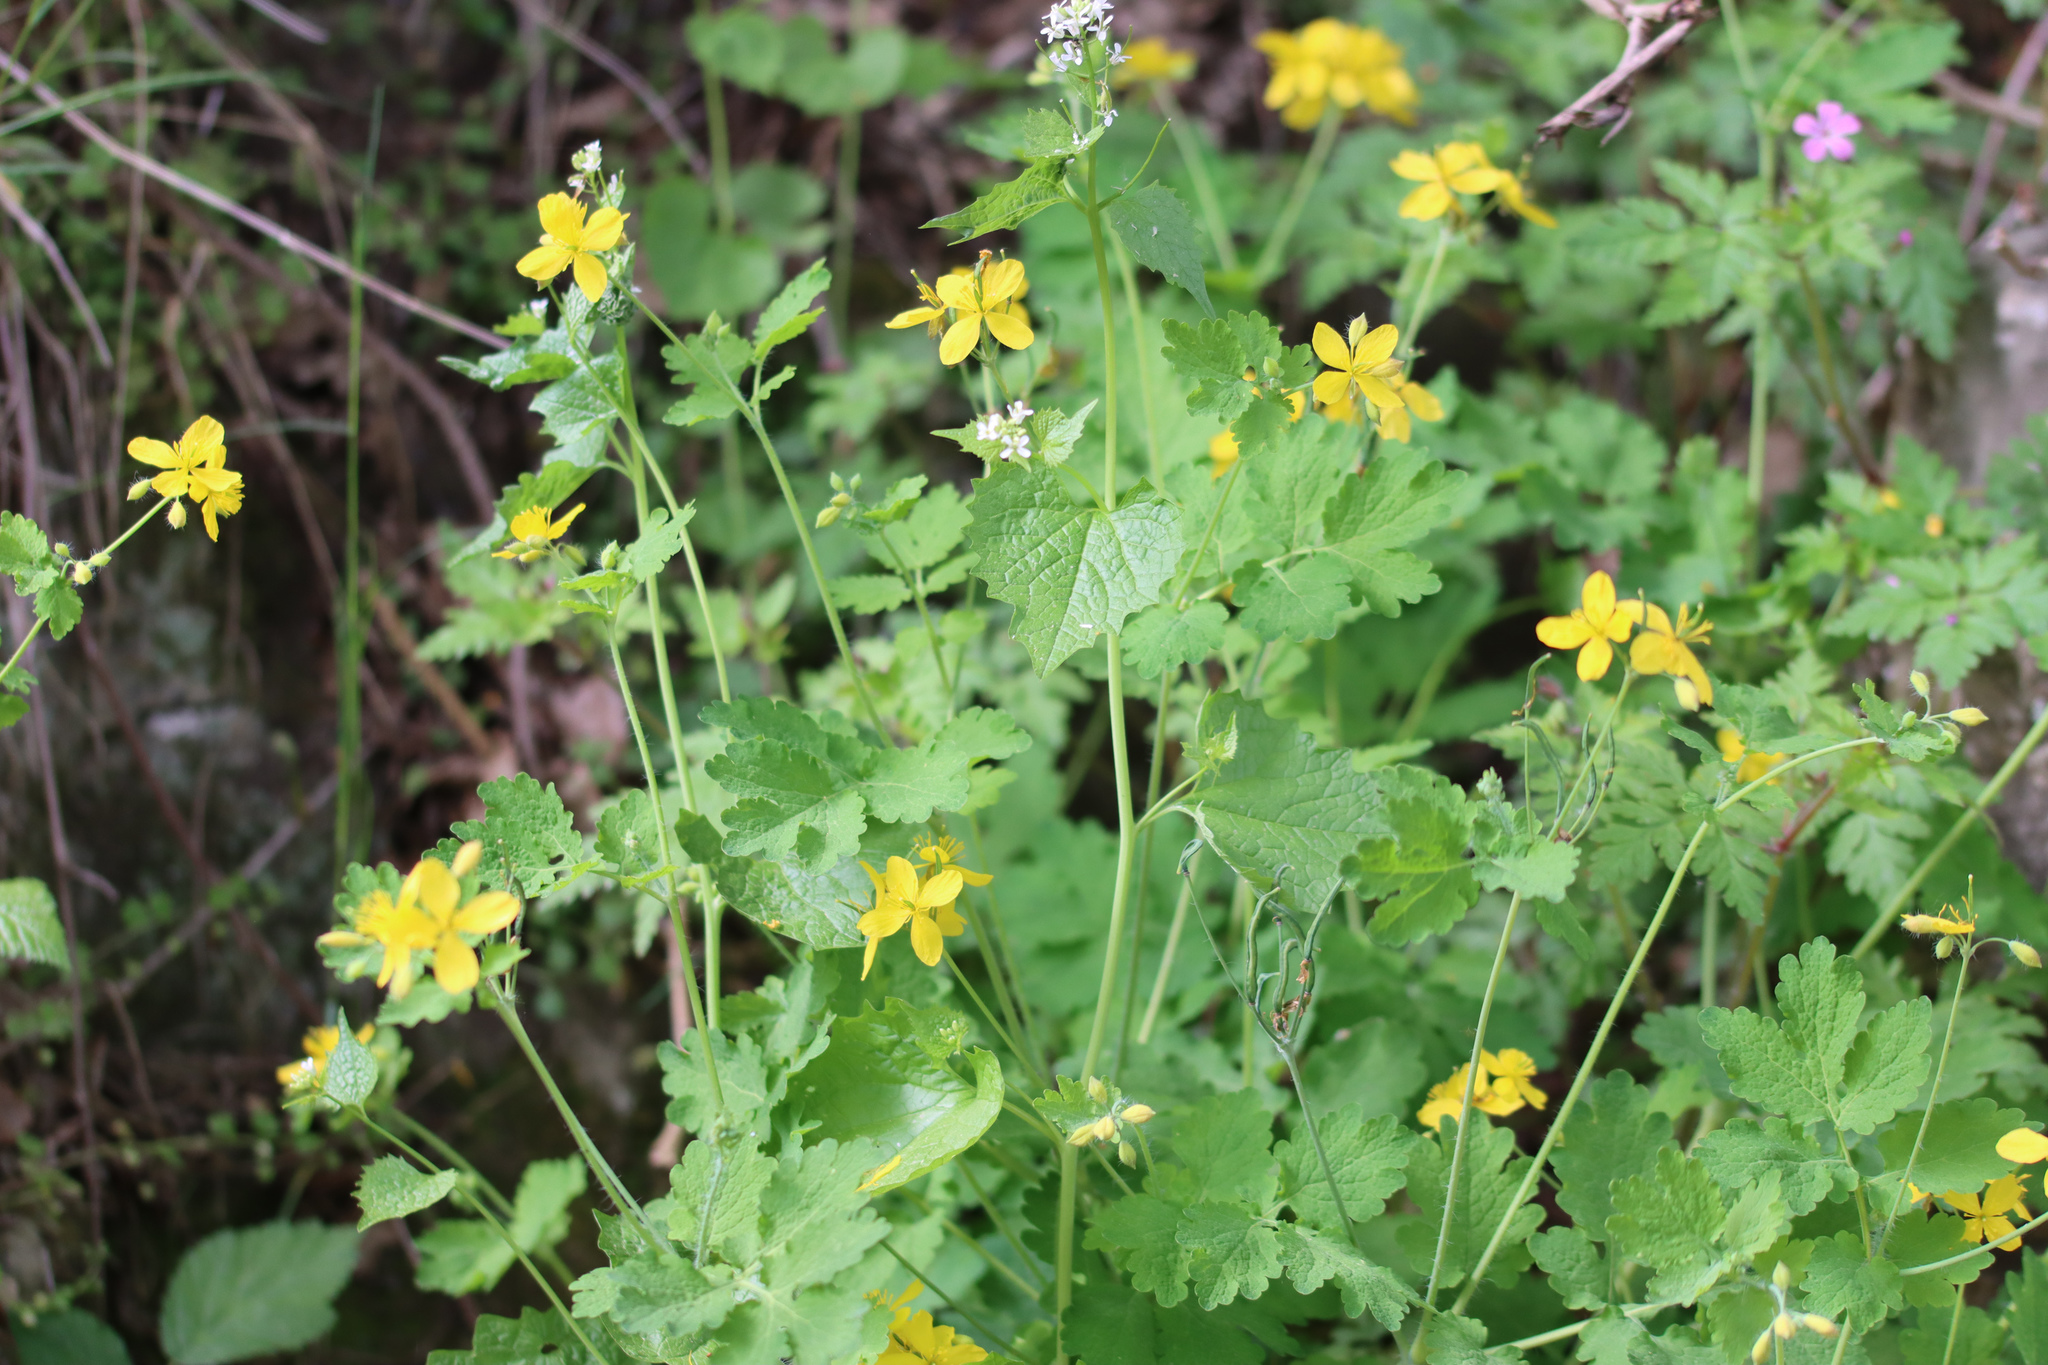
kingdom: Plantae
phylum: Tracheophyta
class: Magnoliopsida
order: Ranunculales
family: Papaveraceae
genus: Chelidonium
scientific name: Chelidonium majus
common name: Greater celandine
